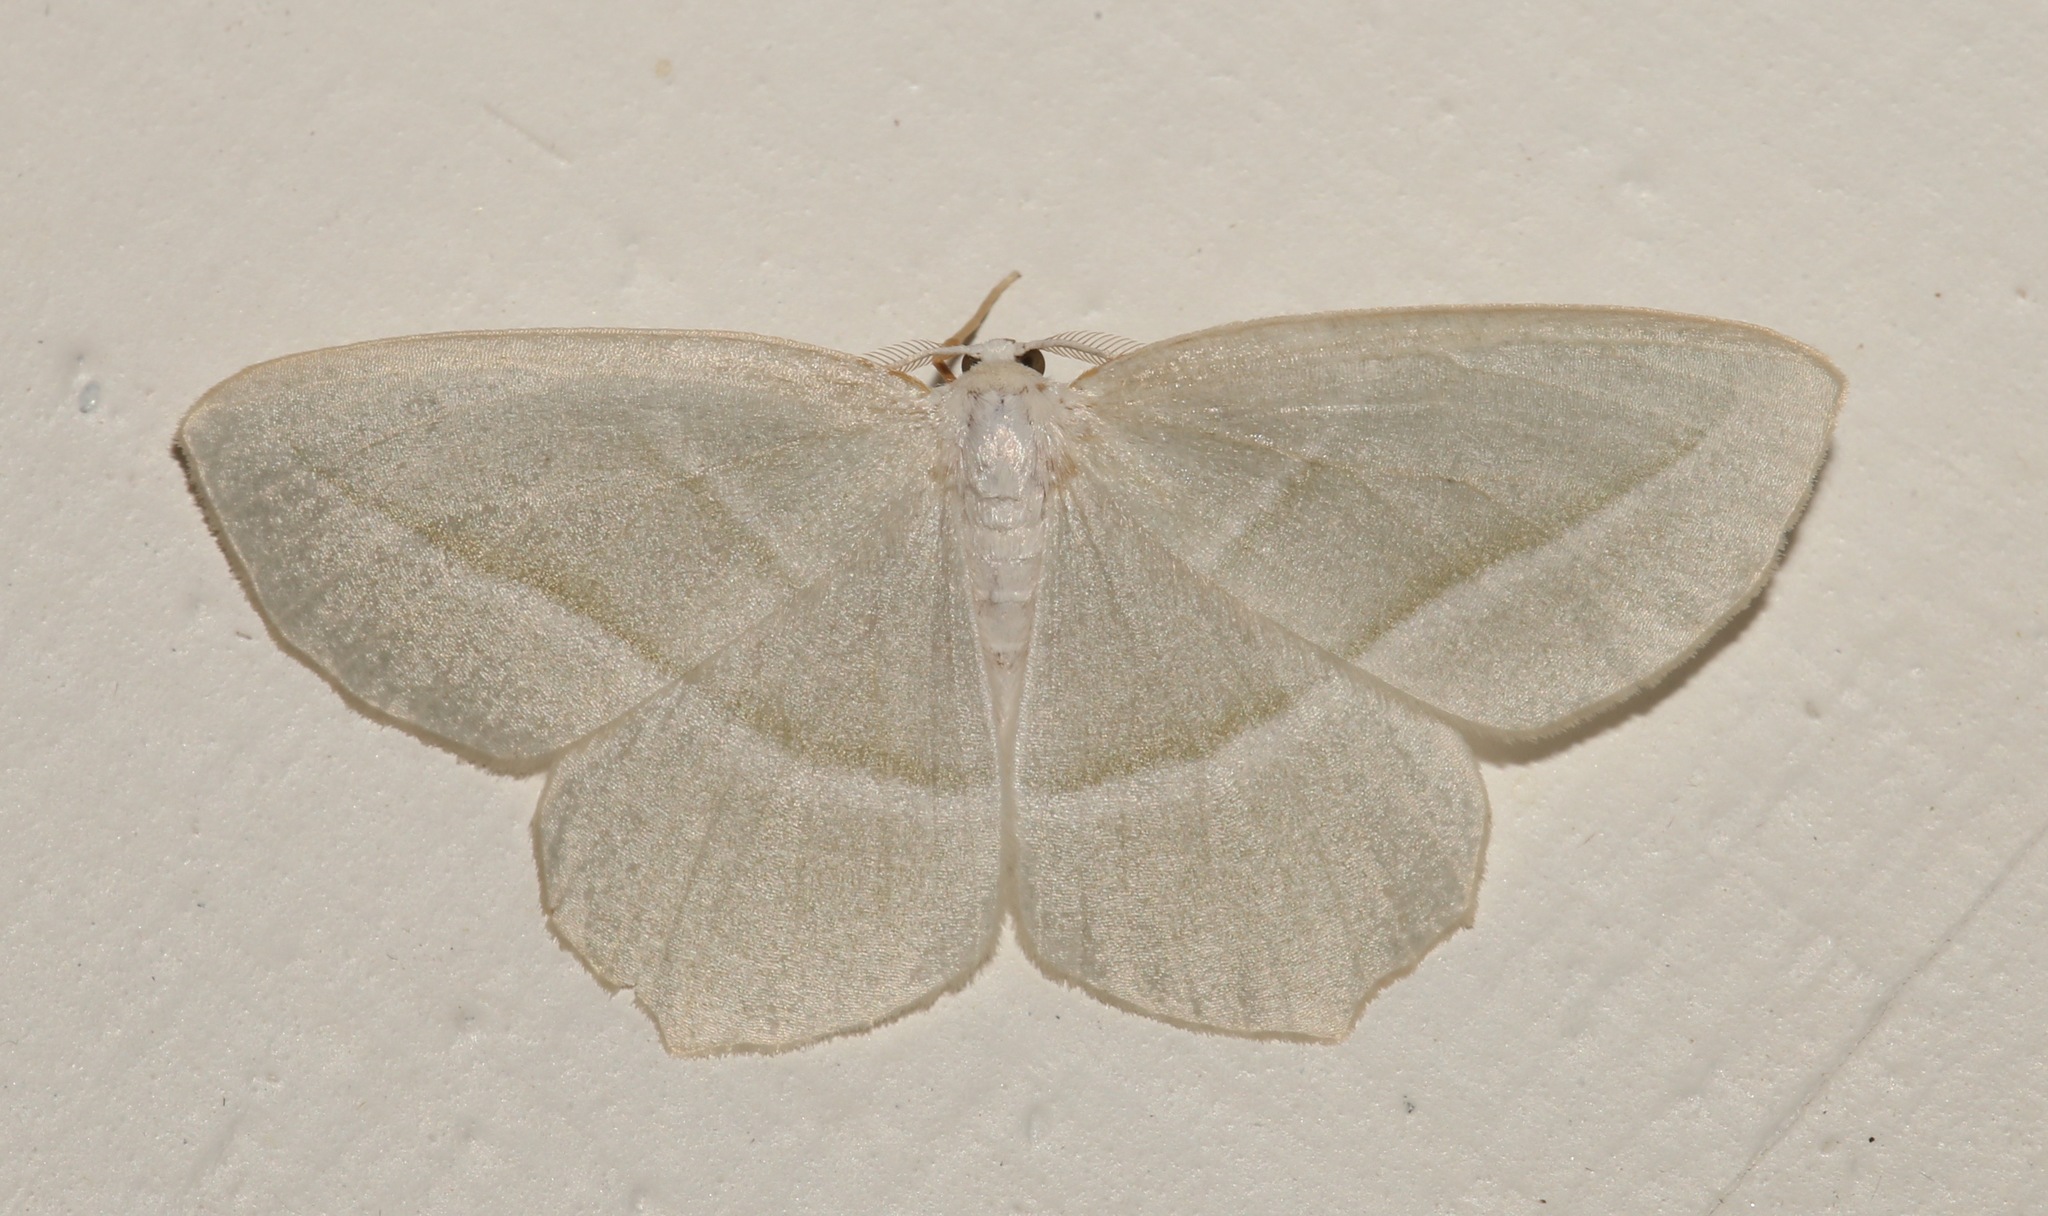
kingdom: Animalia
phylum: Arthropoda
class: Insecta
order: Lepidoptera
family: Geometridae
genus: Campaea
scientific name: Campaea perlata
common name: Fringed looper
